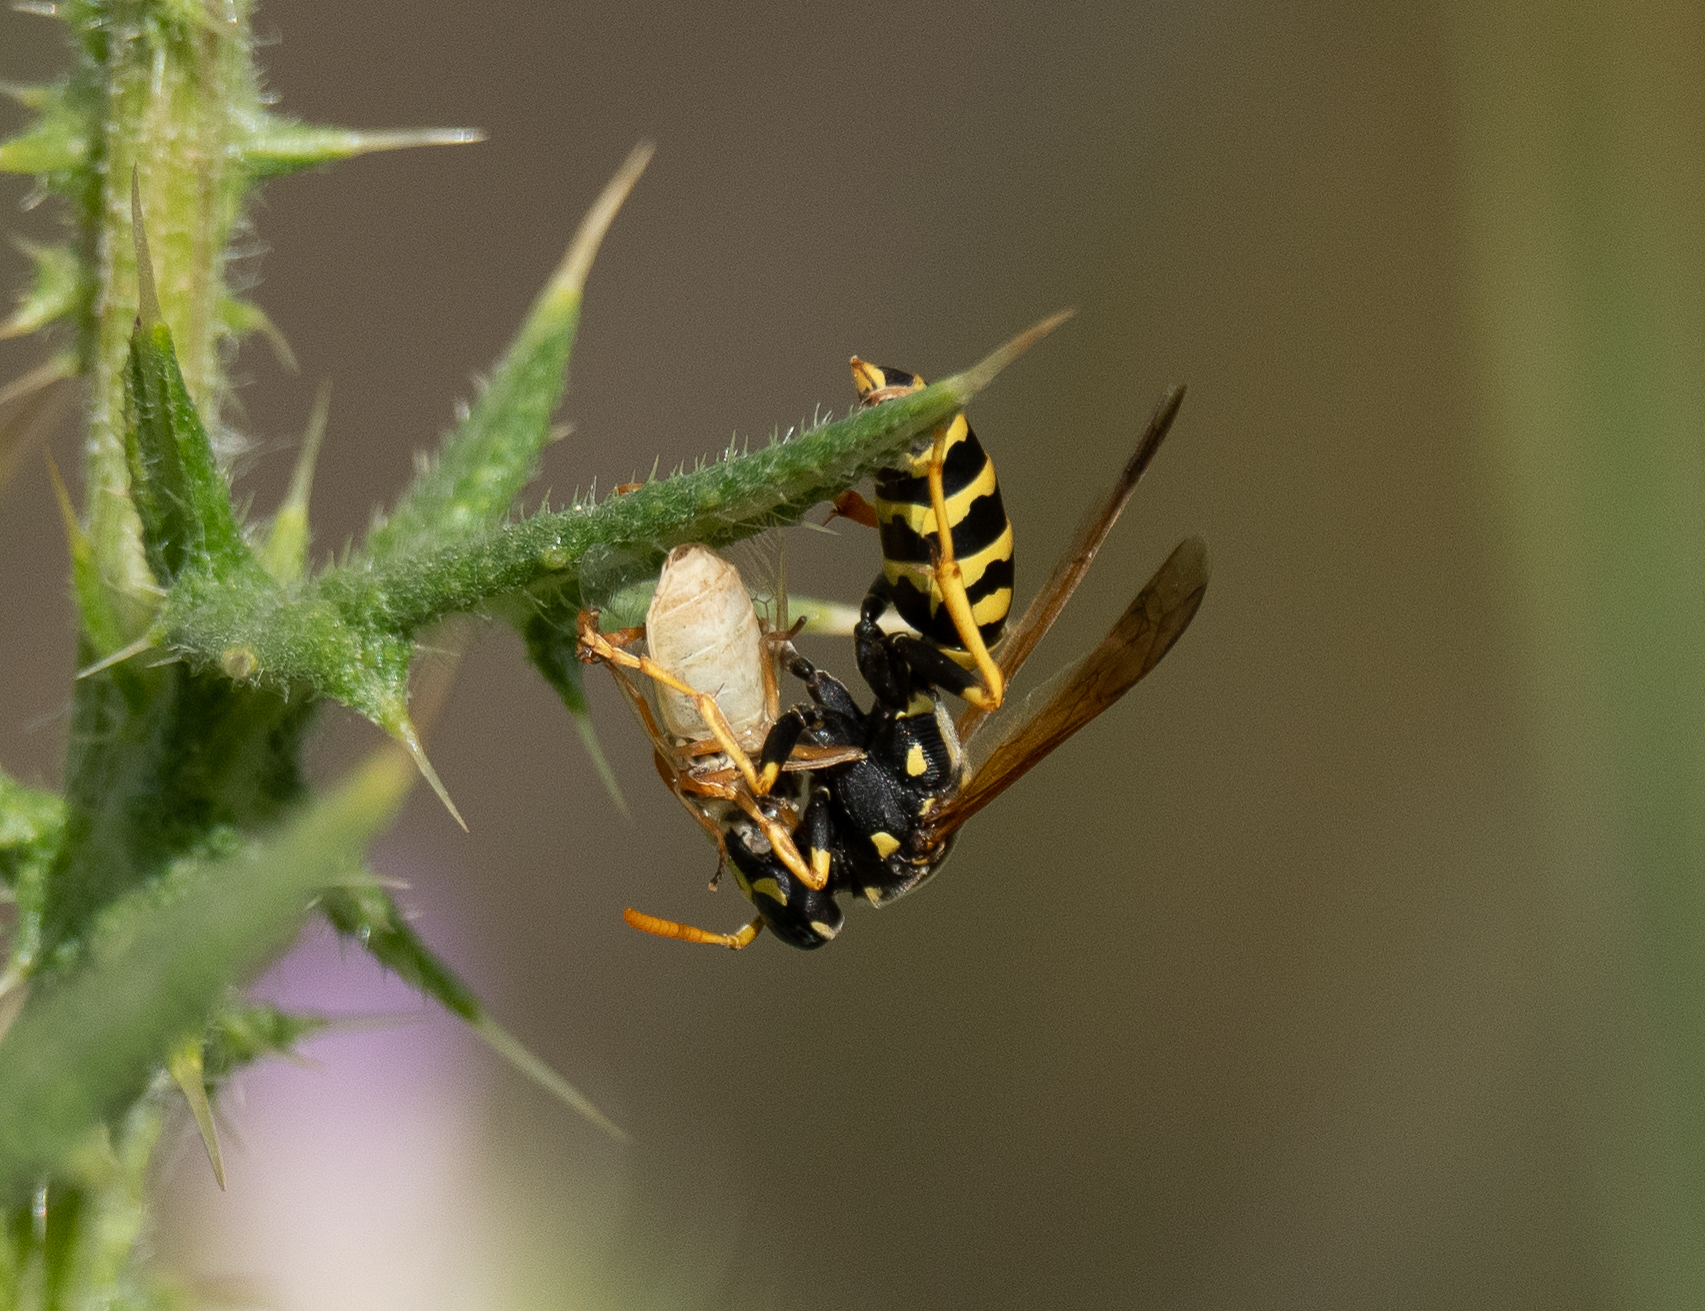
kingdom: Animalia
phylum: Arthropoda
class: Insecta
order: Hymenoptera
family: Eumenidae
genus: Polistes
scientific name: Polistes dominula
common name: Paper wasp
